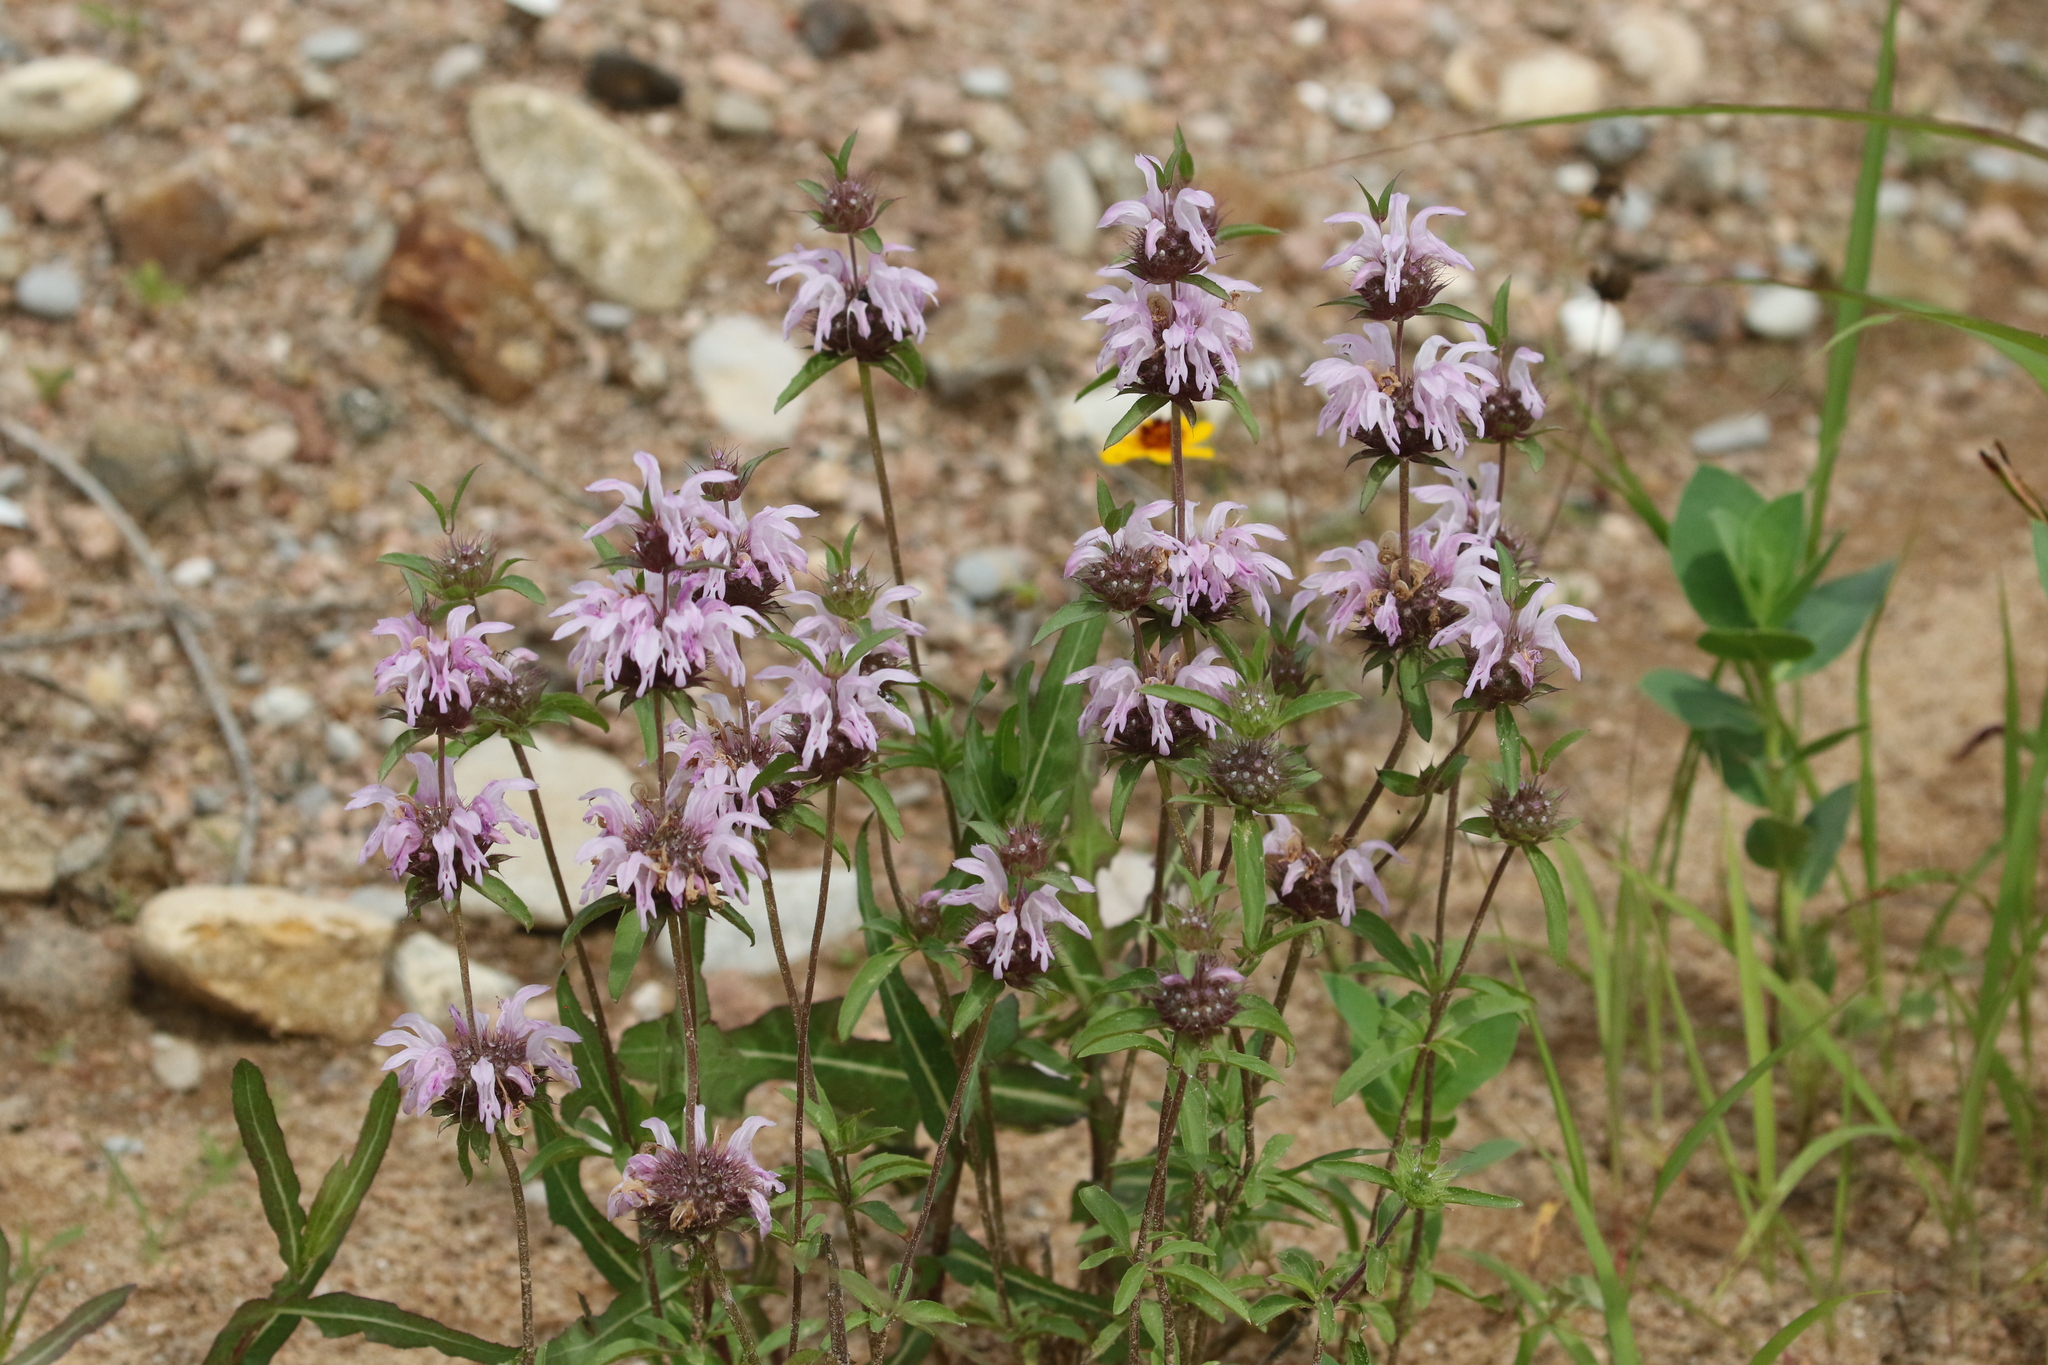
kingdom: Plantae
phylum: Tracheophyta
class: Magnoliopsida
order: Lamiales
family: Lamiaceae
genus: Monarda
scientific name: Monarda clinopodioides
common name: Basil beebalm
